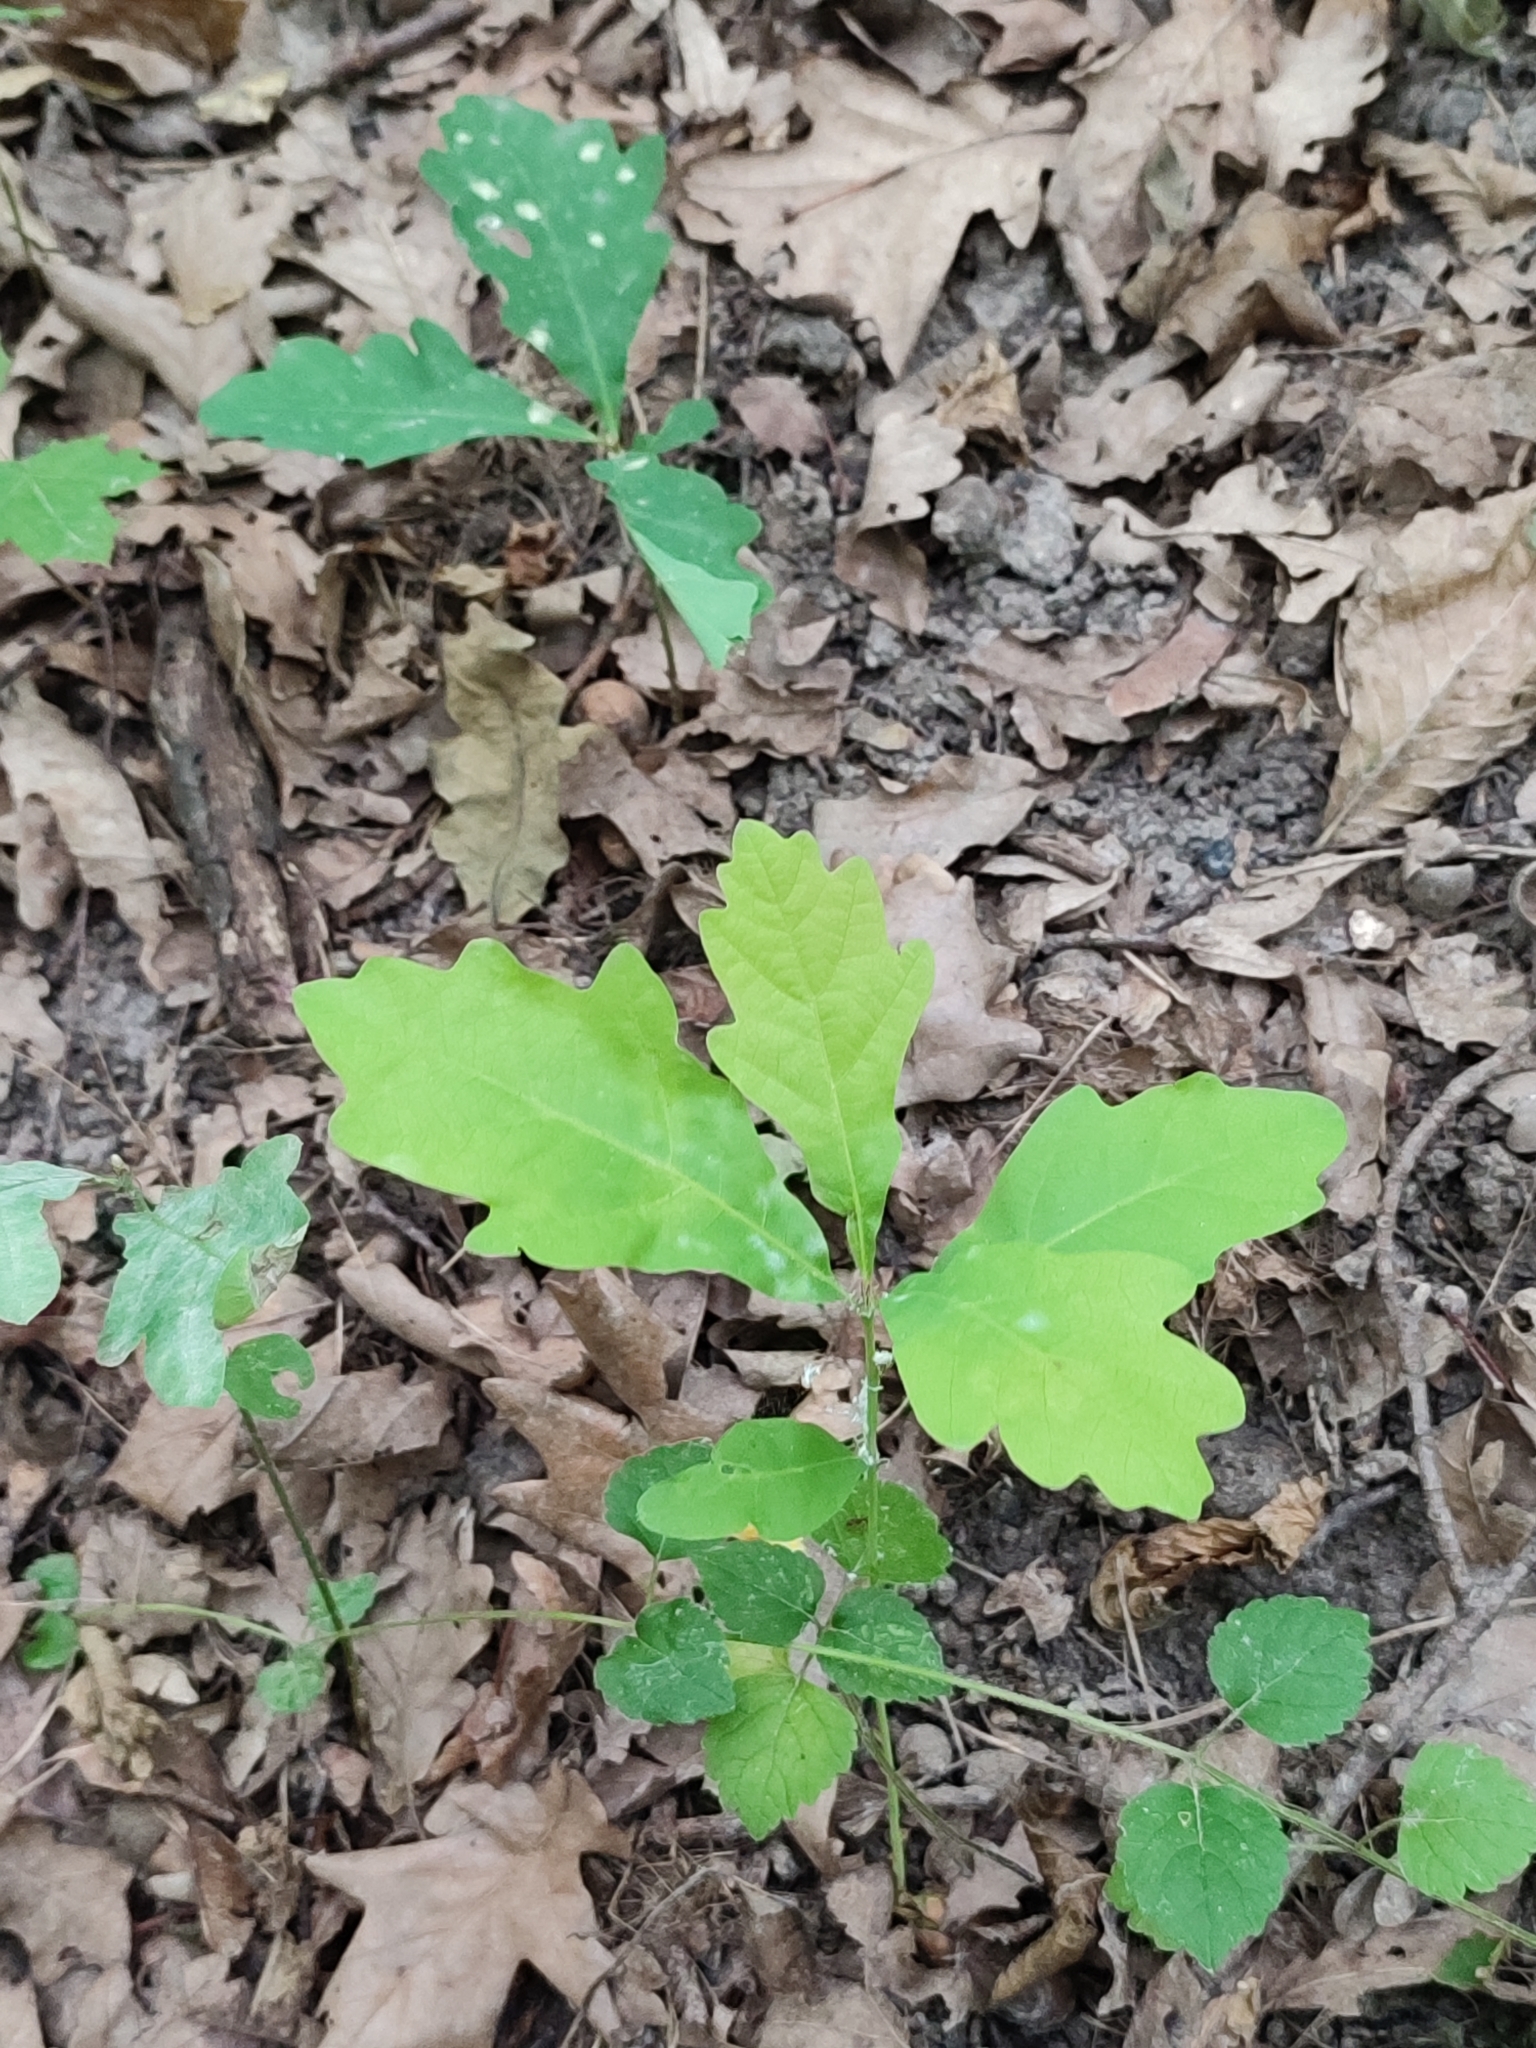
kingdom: Plantae
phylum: Tracheophyta
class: Magnoliopsida
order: Fagales
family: Fagaceae
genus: Quercus
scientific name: Quercus robur
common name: Pedunculate oak
